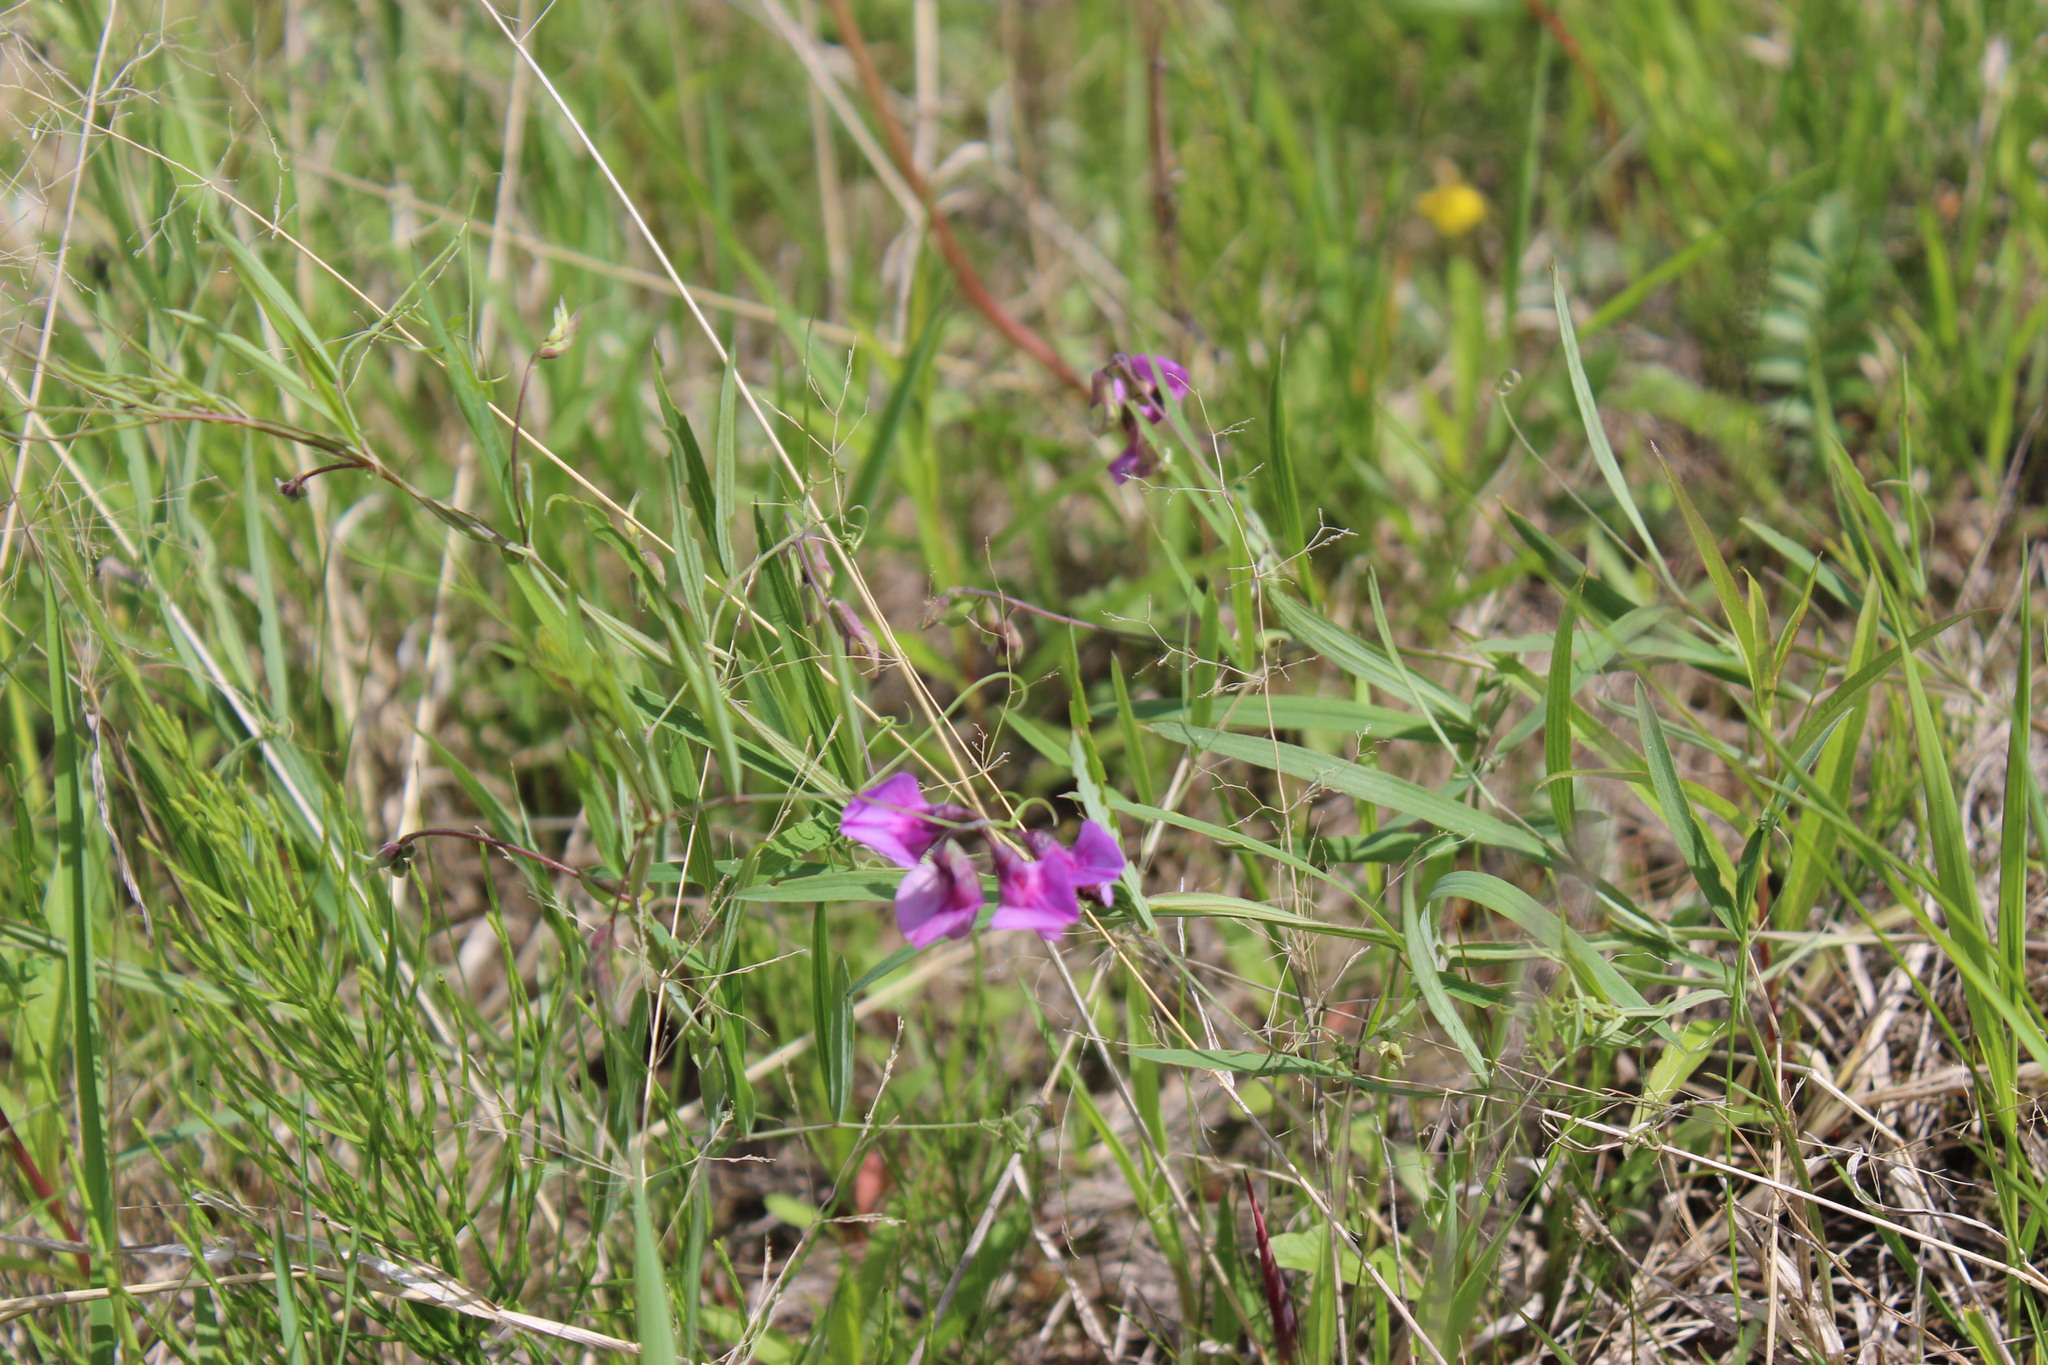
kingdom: Plantae
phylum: Tracheophyta
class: Magnoliopsida
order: Fabales
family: Fabaceae
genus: Lathyrus
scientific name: Lathyrus palustris
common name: Marsh pea
